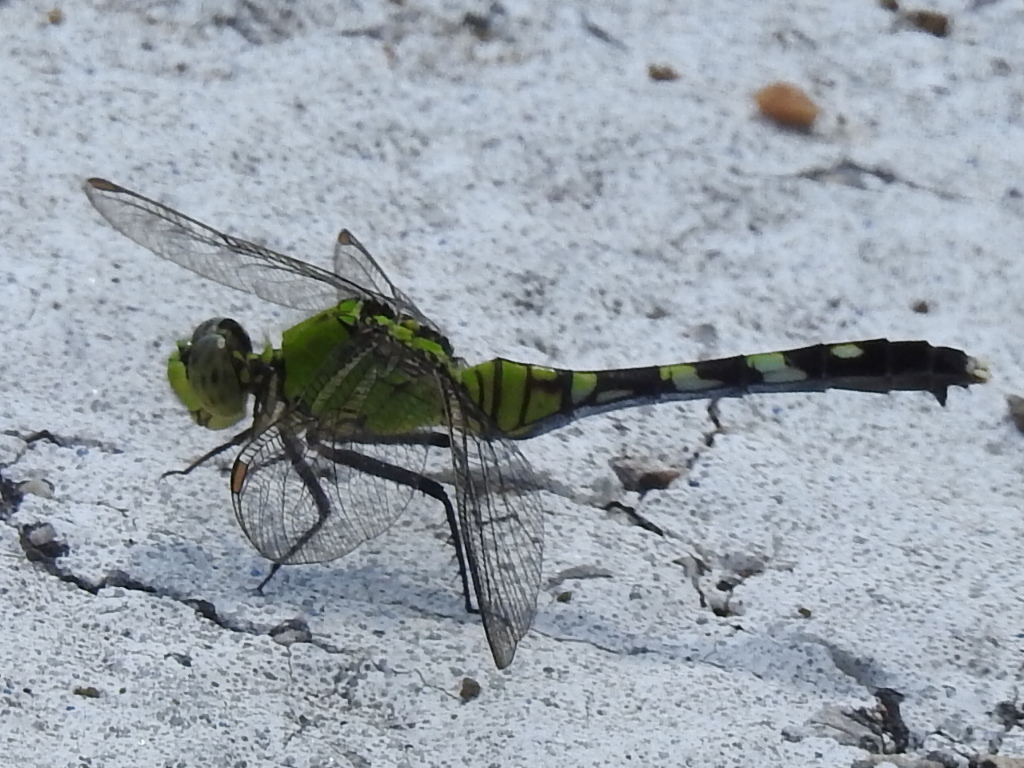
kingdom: Animalia
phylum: Arthropoda
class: Insecta
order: Odonata
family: Libellulidae
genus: Erythemis
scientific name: Erythemis simplicicollis
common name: Eastern pondhawk
